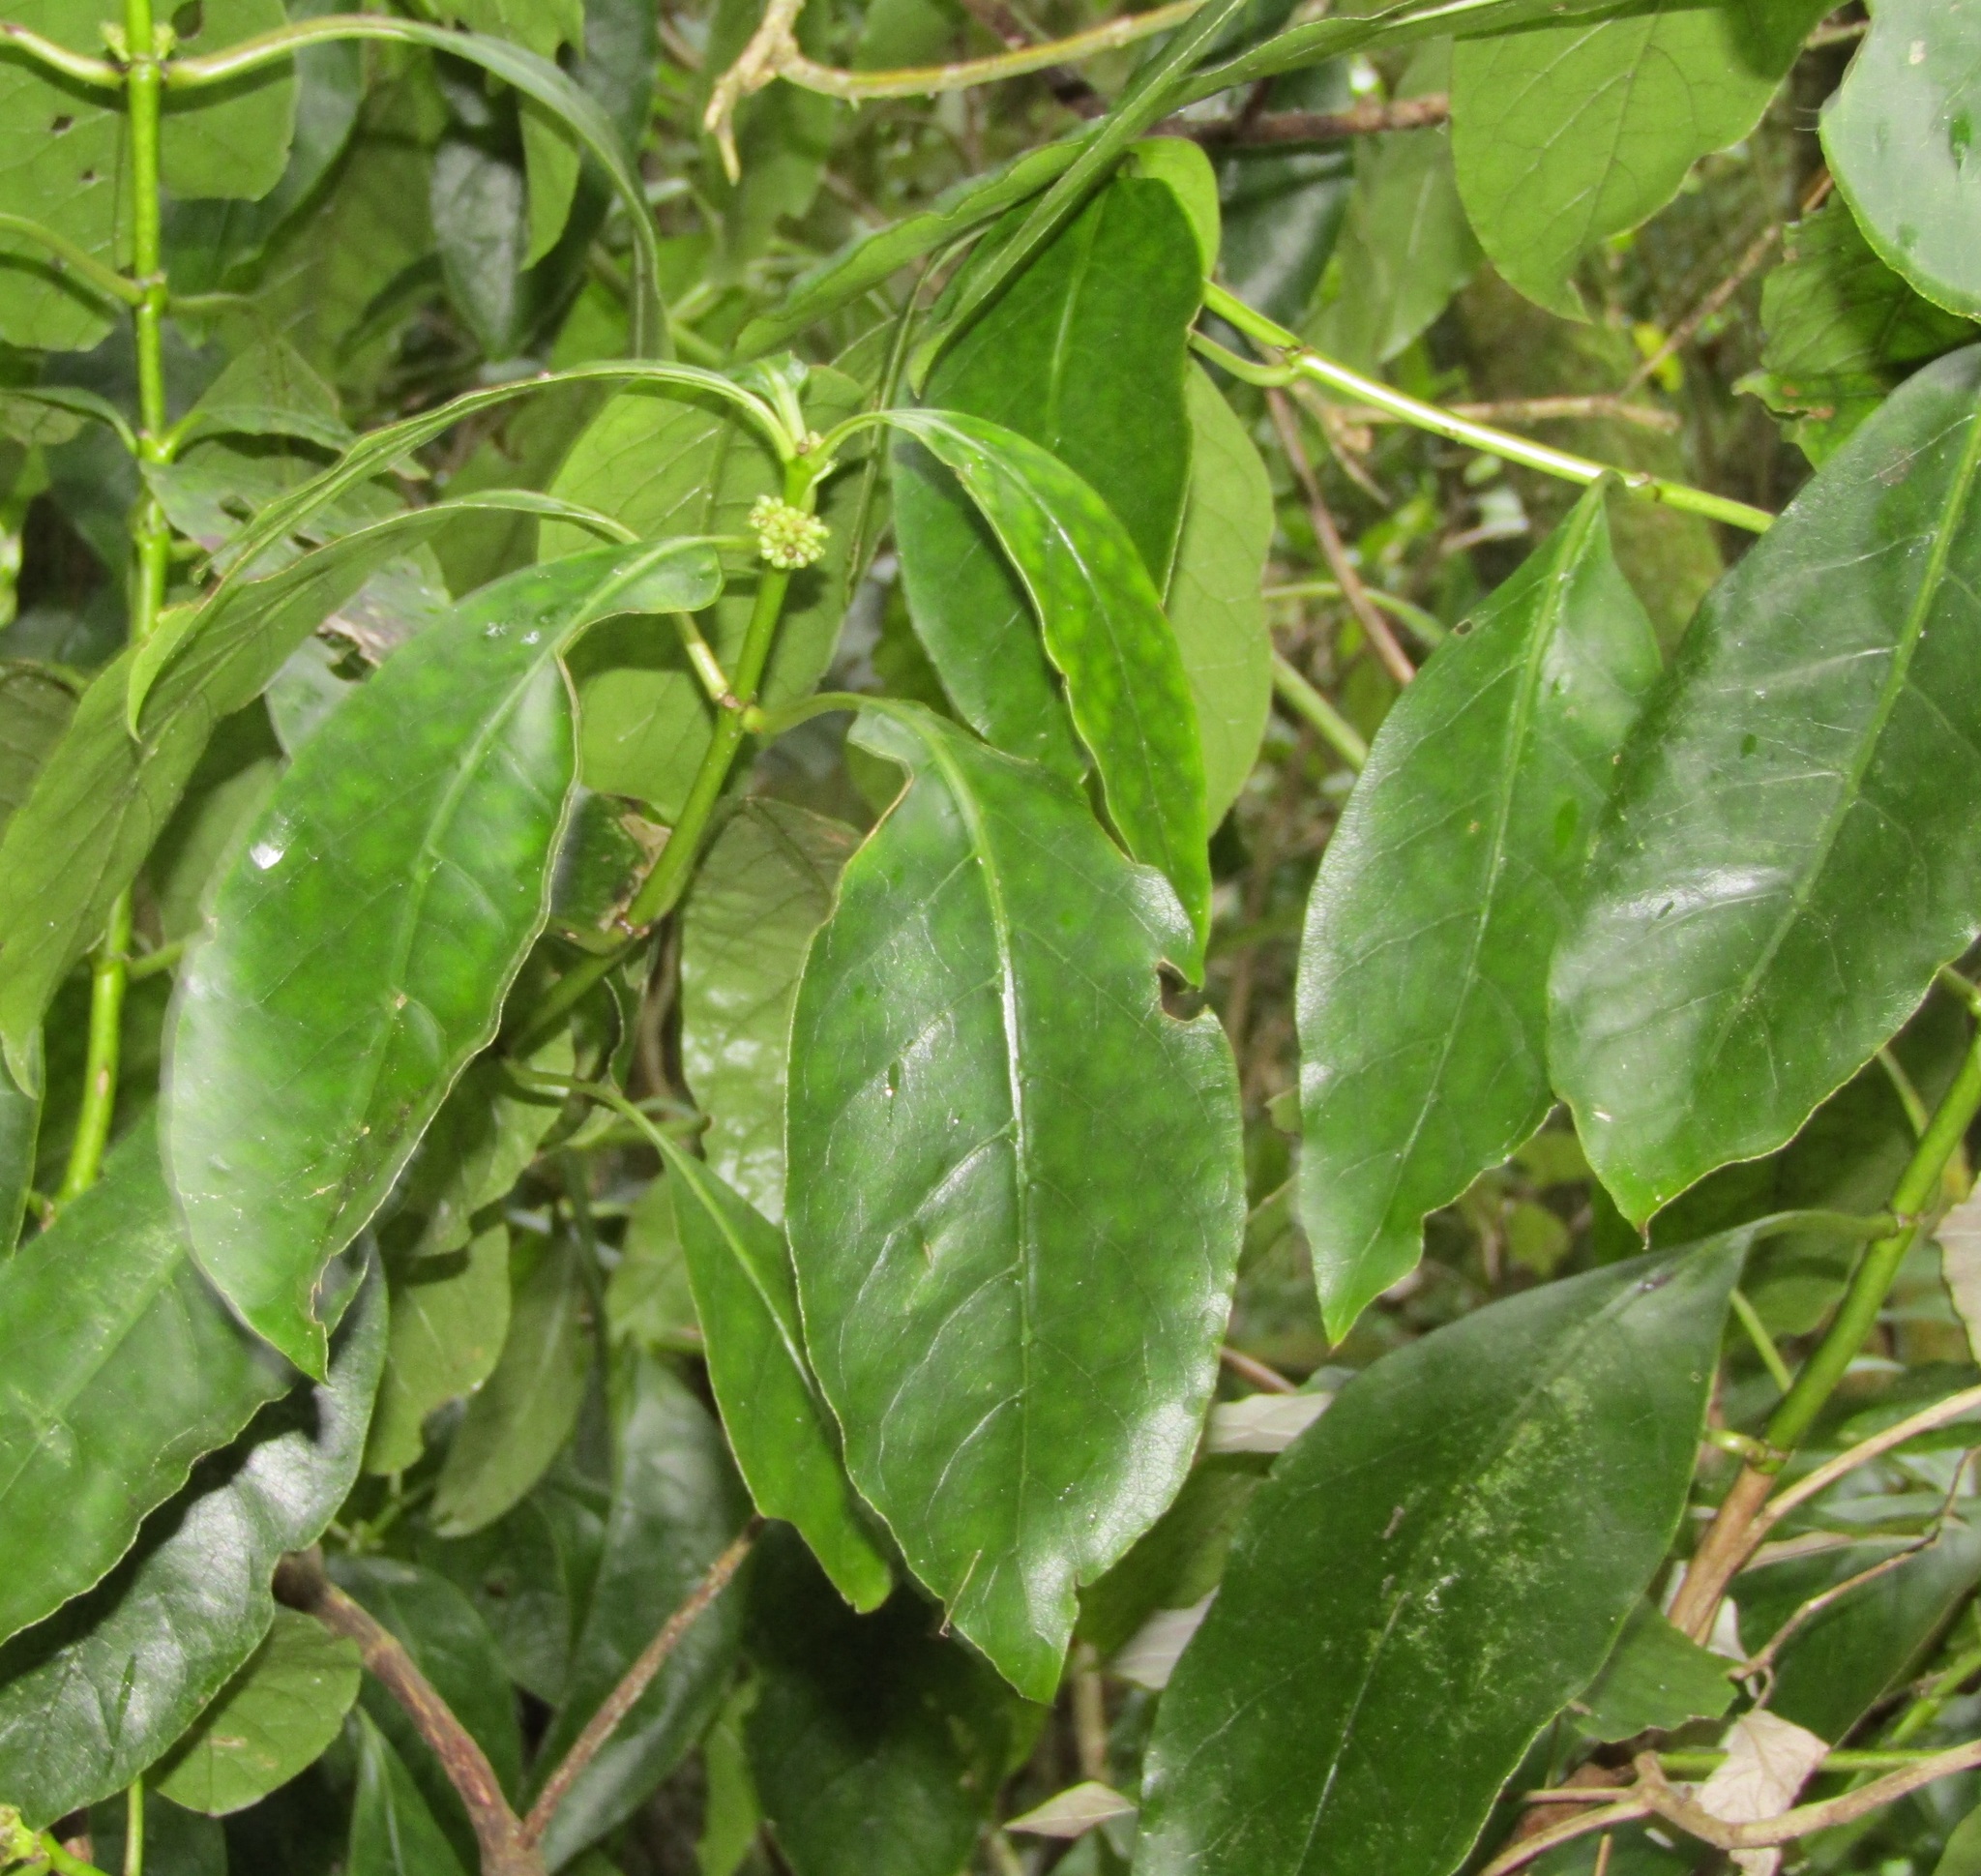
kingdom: Plantae
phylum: Tracheophyta
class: Magnoliopsida
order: Gentianales
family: Rubiaceae
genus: Coprosma
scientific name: Coprosma autumnalis
